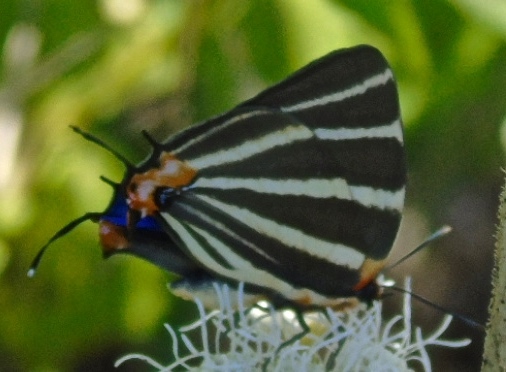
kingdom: Animalia
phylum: Arthropoda
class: Insecta
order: Lepidoptera
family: Lycaenidae
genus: Thecla
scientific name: Thecla bathildis
